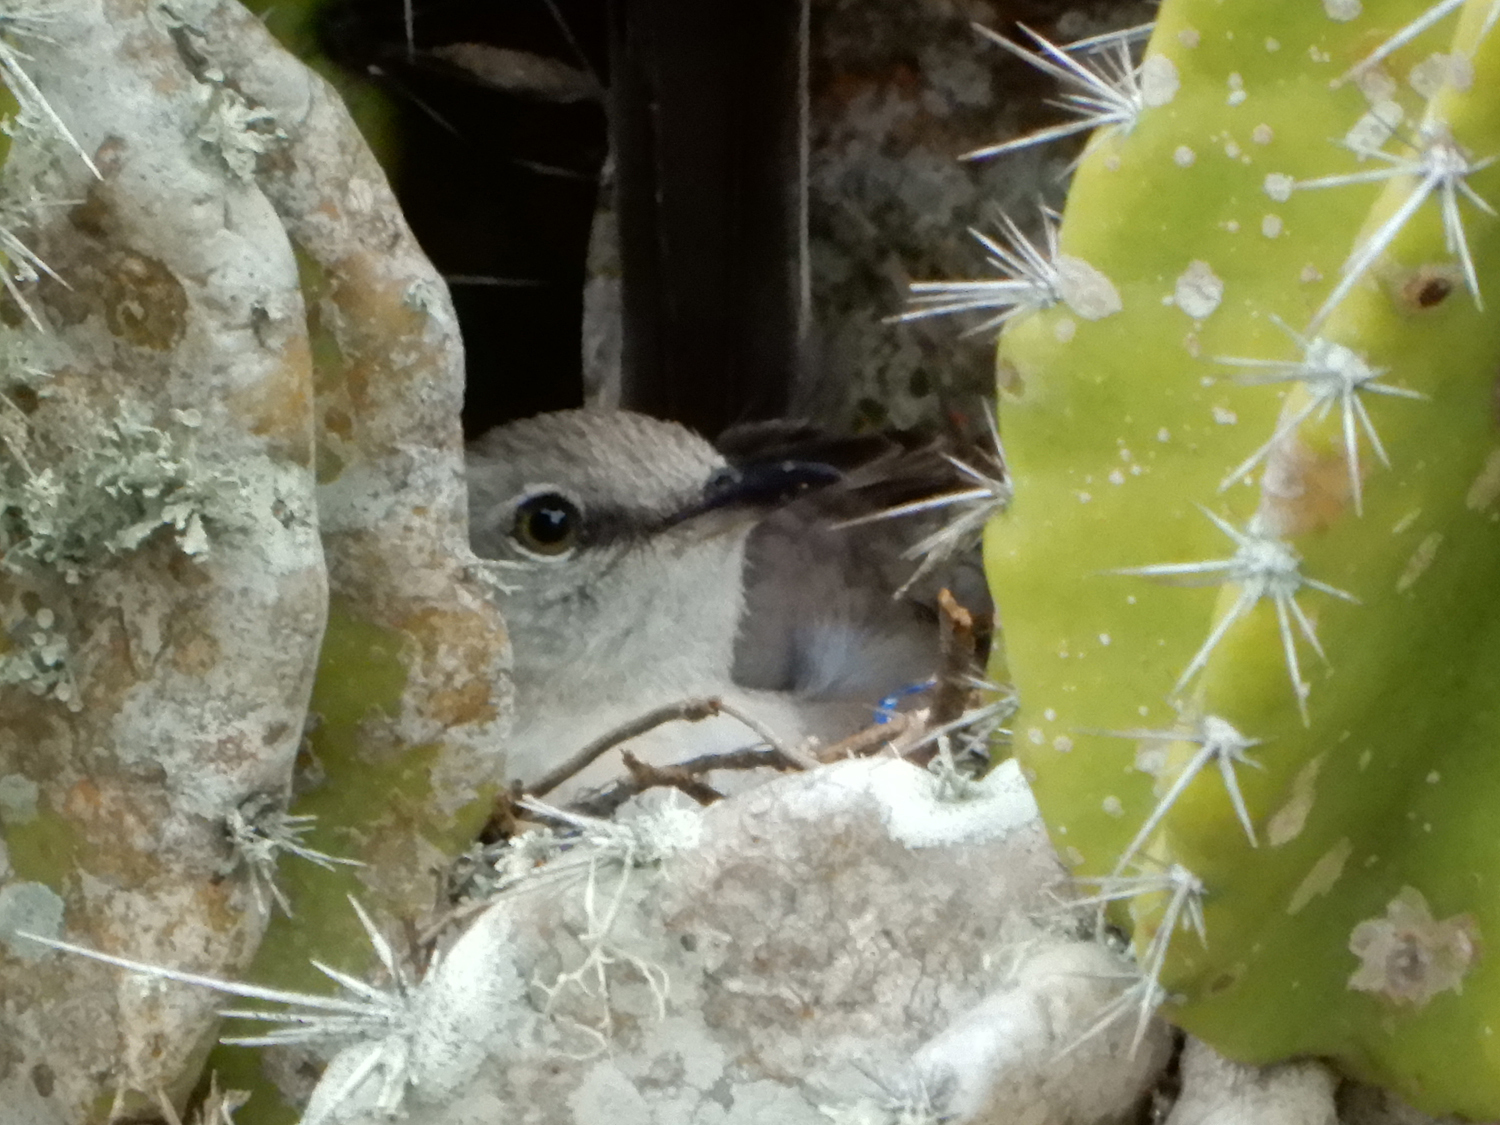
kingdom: Animalia
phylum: Chordata
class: Aves
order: Passeriformes
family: Mimidae
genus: Mimus
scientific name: Mimus polyglottos
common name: Northern mockingbird
